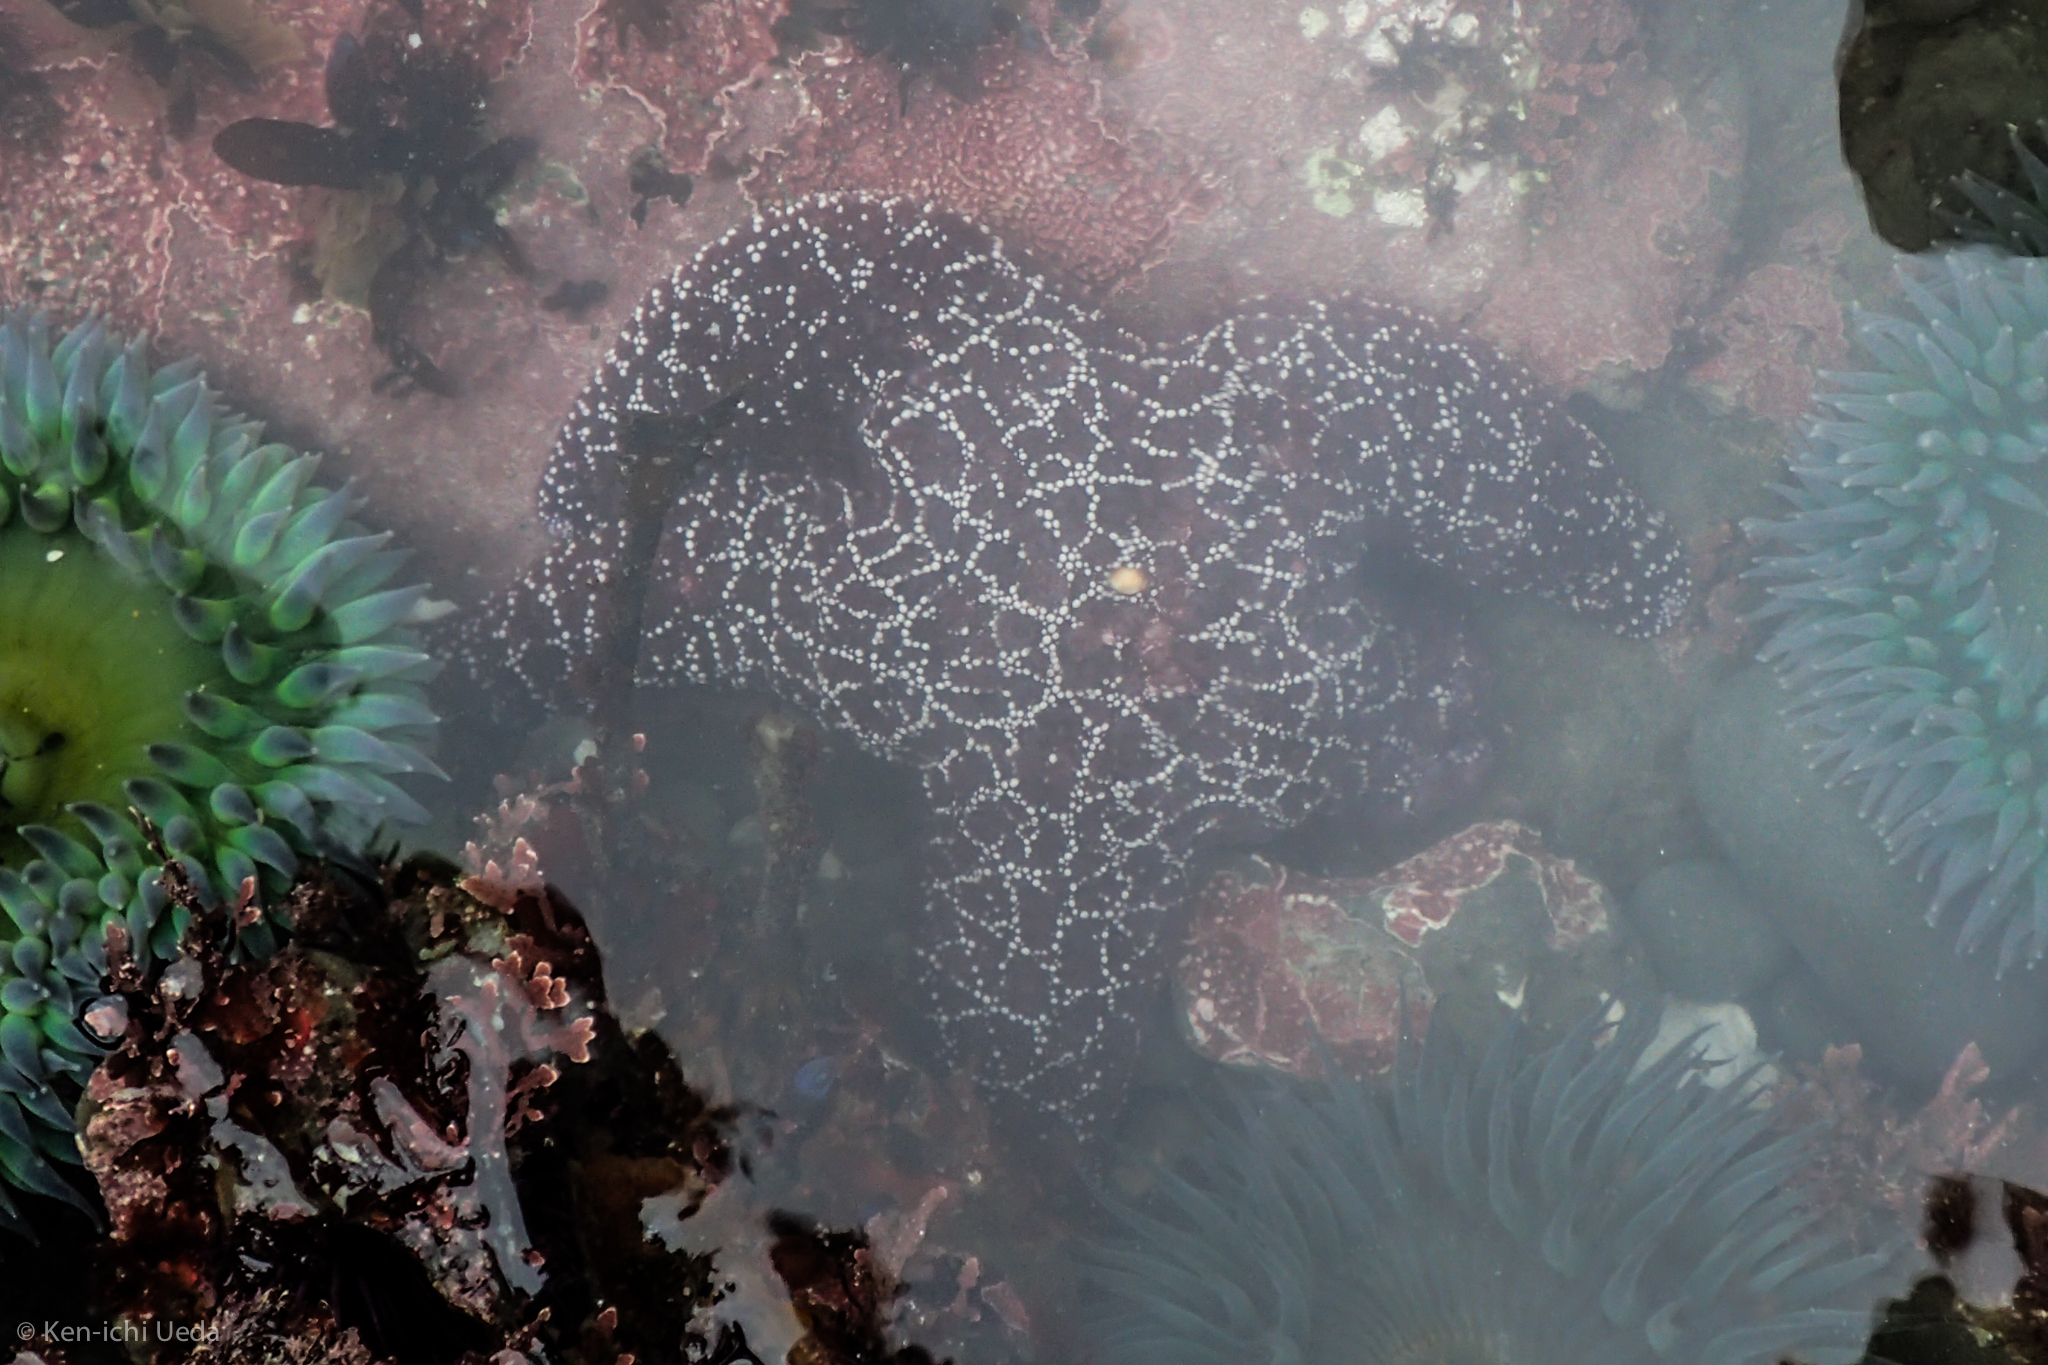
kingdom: Animalia
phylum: Echinodermata
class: Asteroidea
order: Forcipulatida
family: Asteriidae
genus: Pisaster
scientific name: Pisaster ochraceus
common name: Ochre stars
